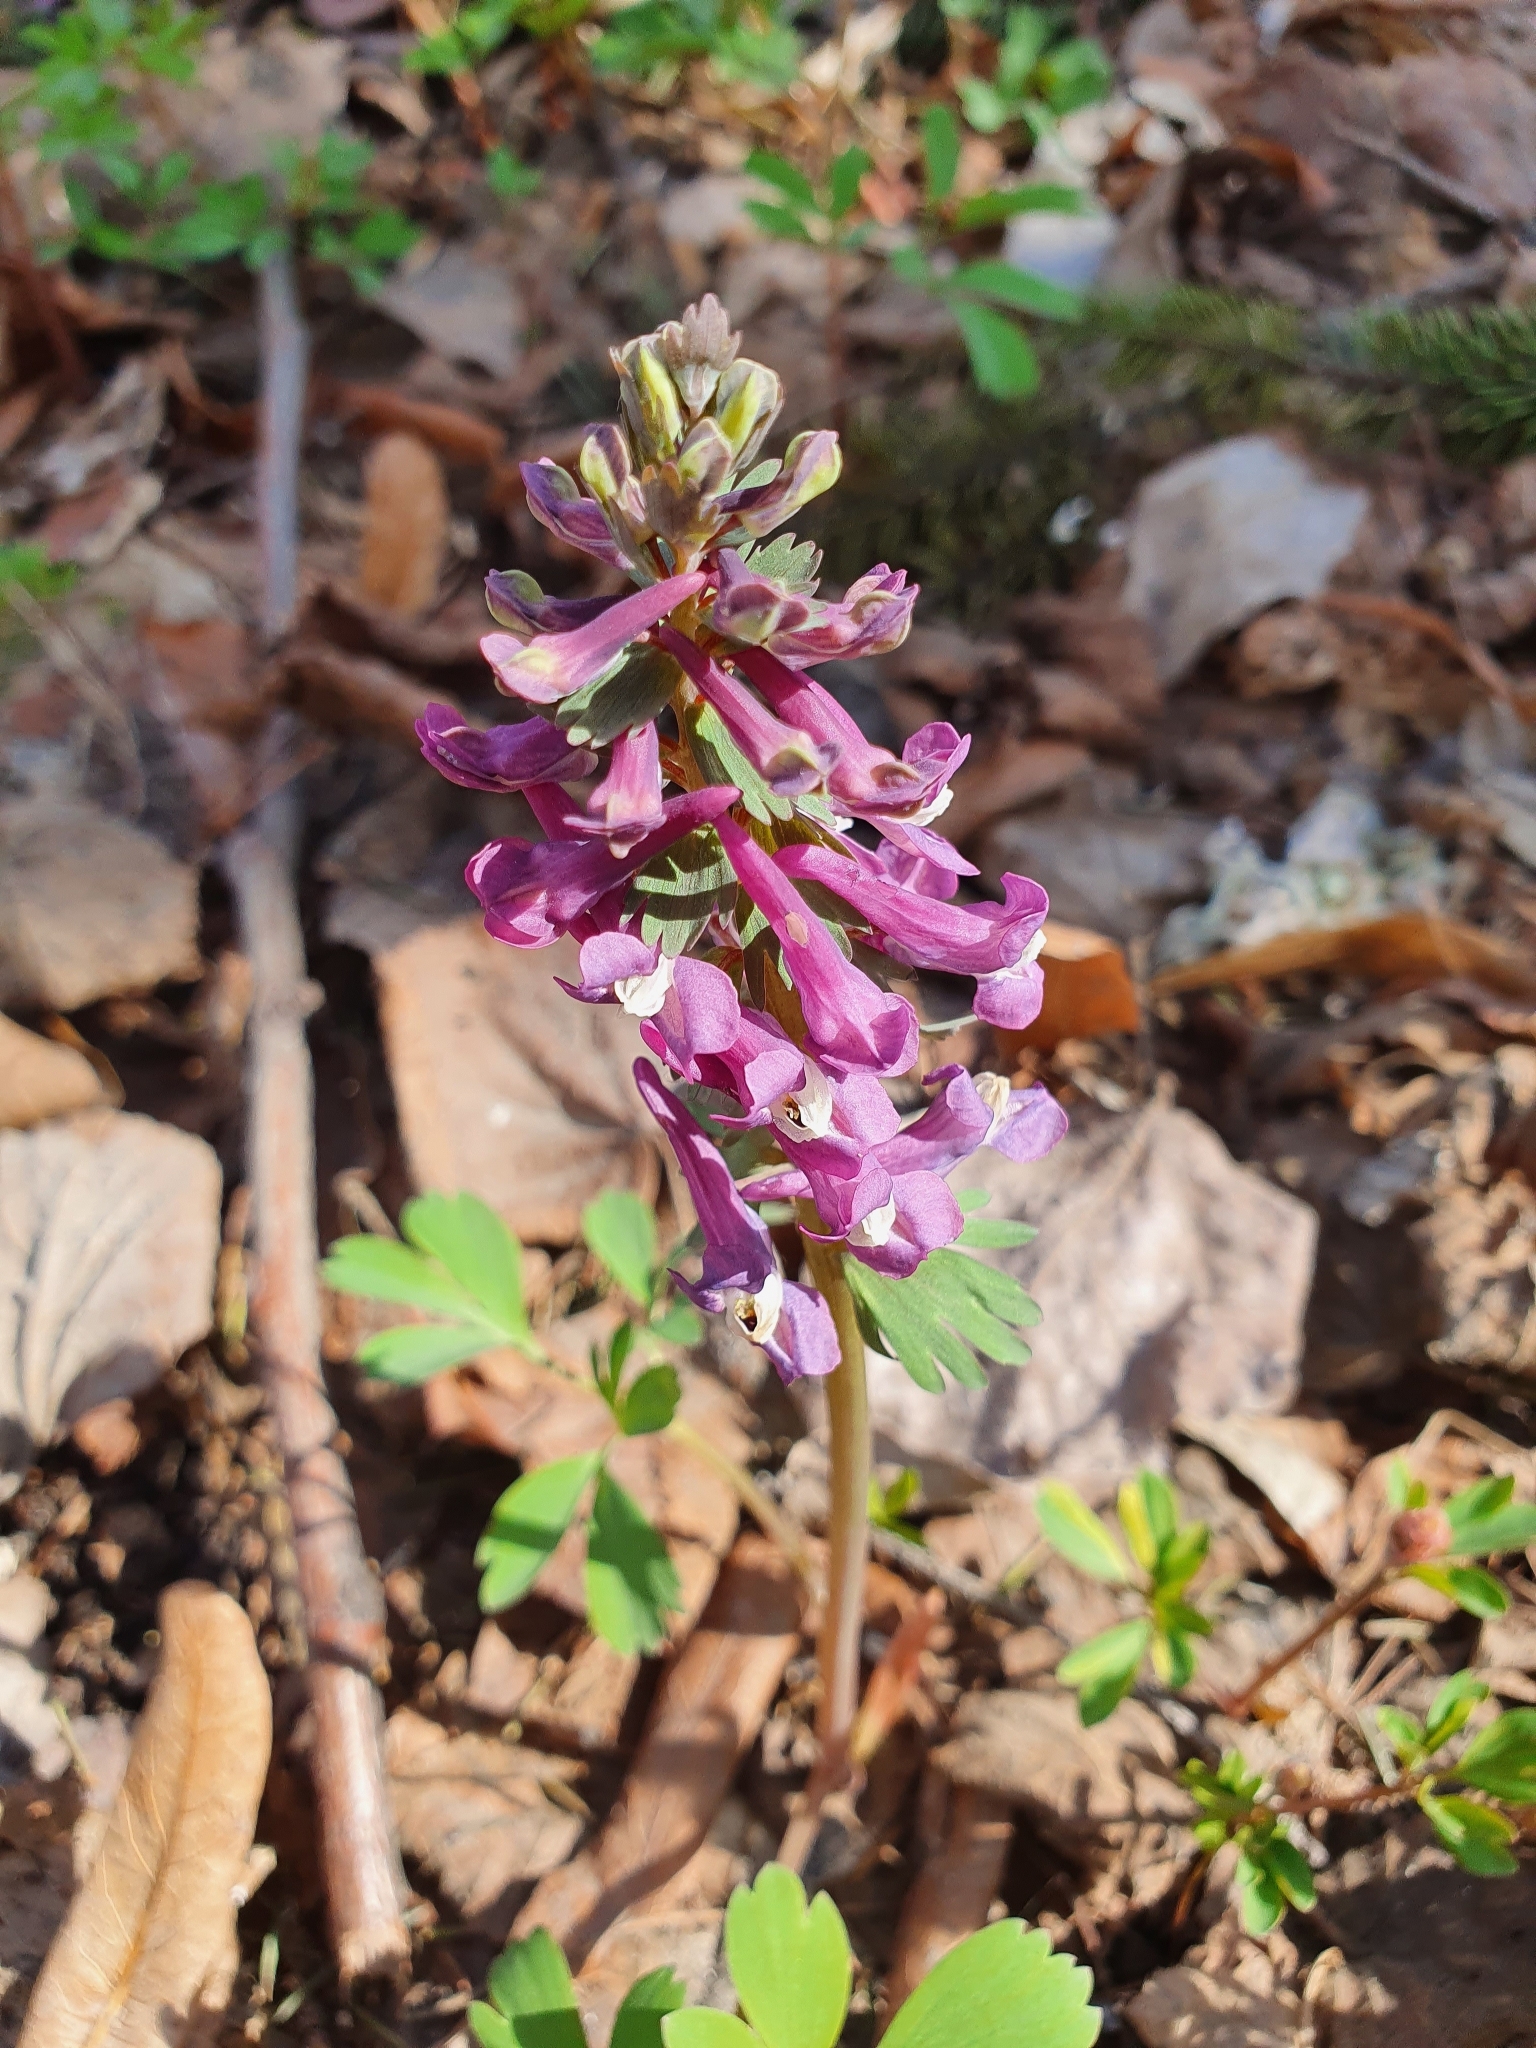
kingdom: Plantae
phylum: Tracheophyta
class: Magnoliopsida
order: Ranunculales
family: Papaveraceae
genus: Corydalis
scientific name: Corydalis solida
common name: Bird-in-a-bush
